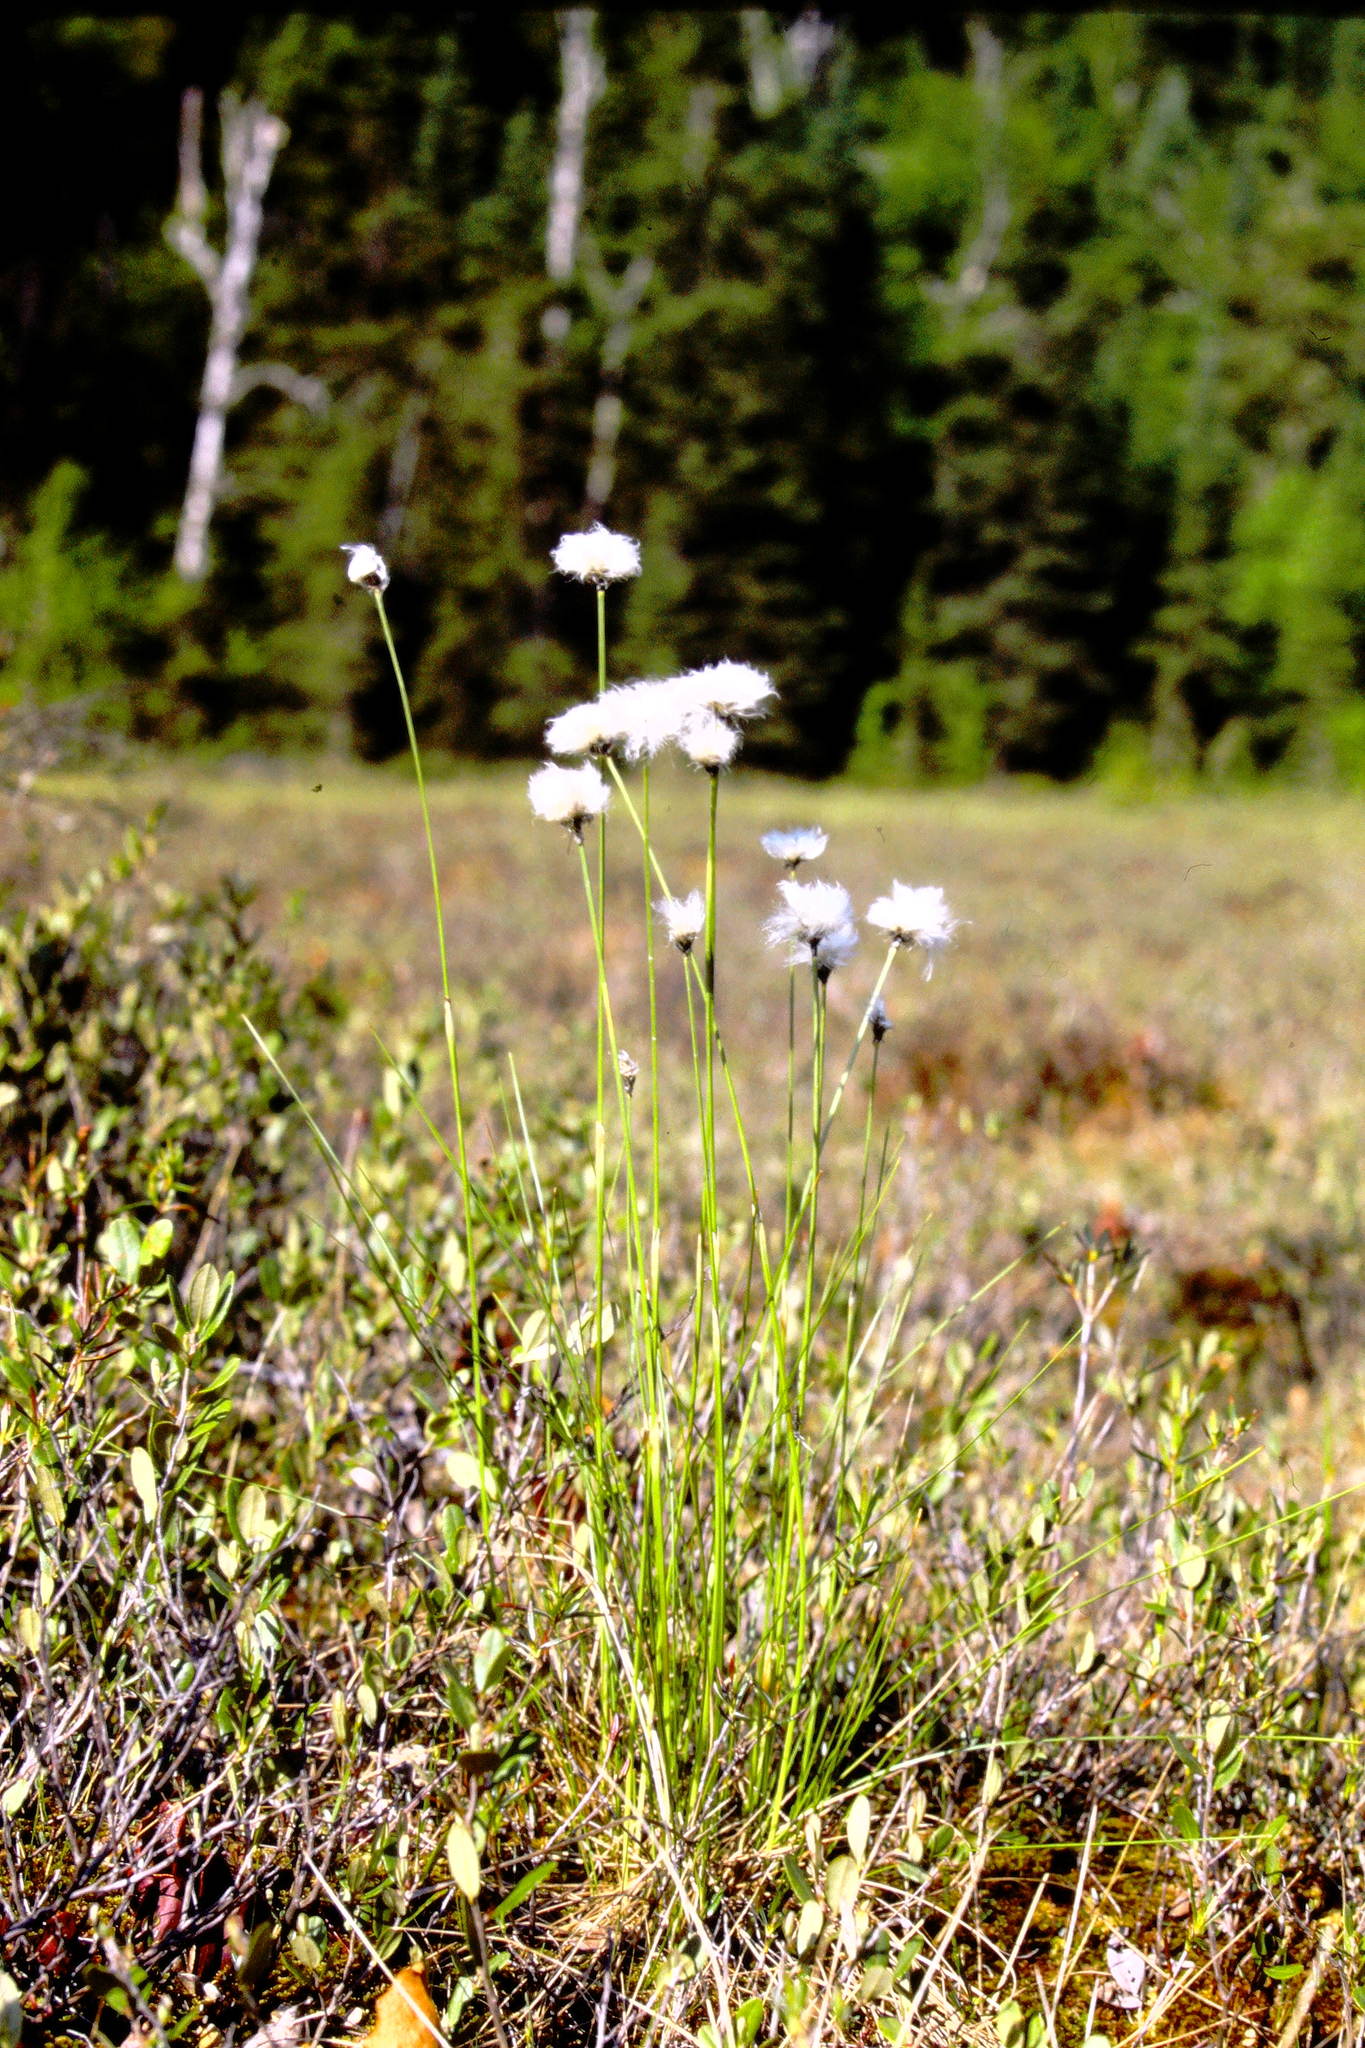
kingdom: Plantae
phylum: Tracheophyta
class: Liliopsida
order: Poales
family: Cyperaceae
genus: Eriophorum
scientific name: Eriophorum vaginatum
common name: Hare's-tail cottongrass
